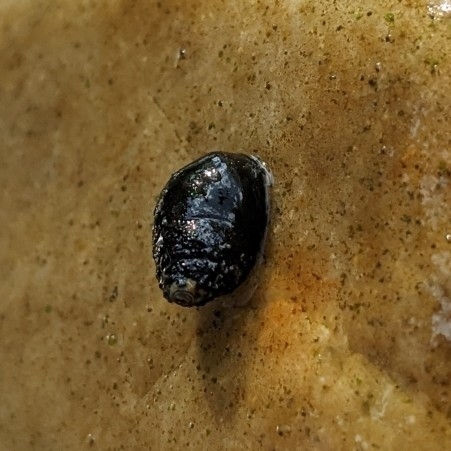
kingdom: Animalia
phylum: Mollusca
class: Gastropoda
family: Pleuroceridae
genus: Leptoxis
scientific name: Leptoxis carinata
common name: Crested mudalia
